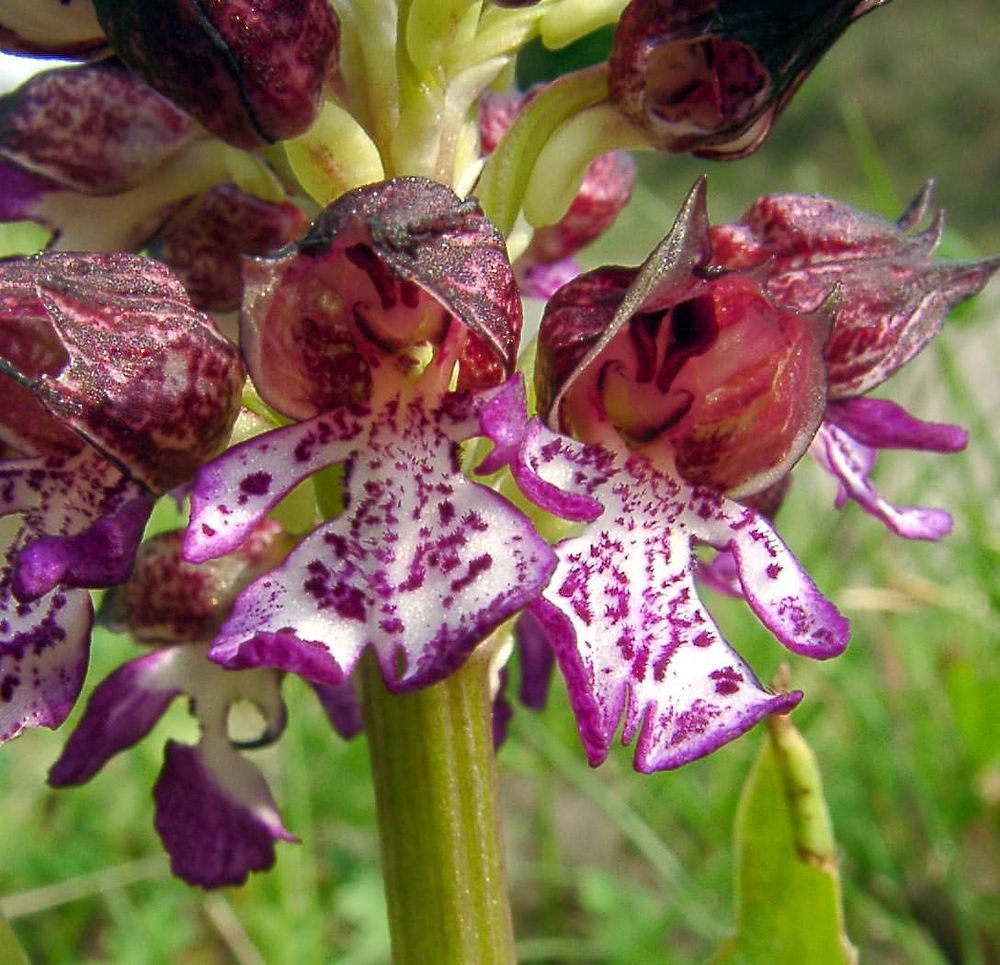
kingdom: Plantae
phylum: Tracheophyta
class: Liliopsida
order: Asparagales
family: Orchidaceae
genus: Orchis
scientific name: Orchis purpurea
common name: Lady orchid
